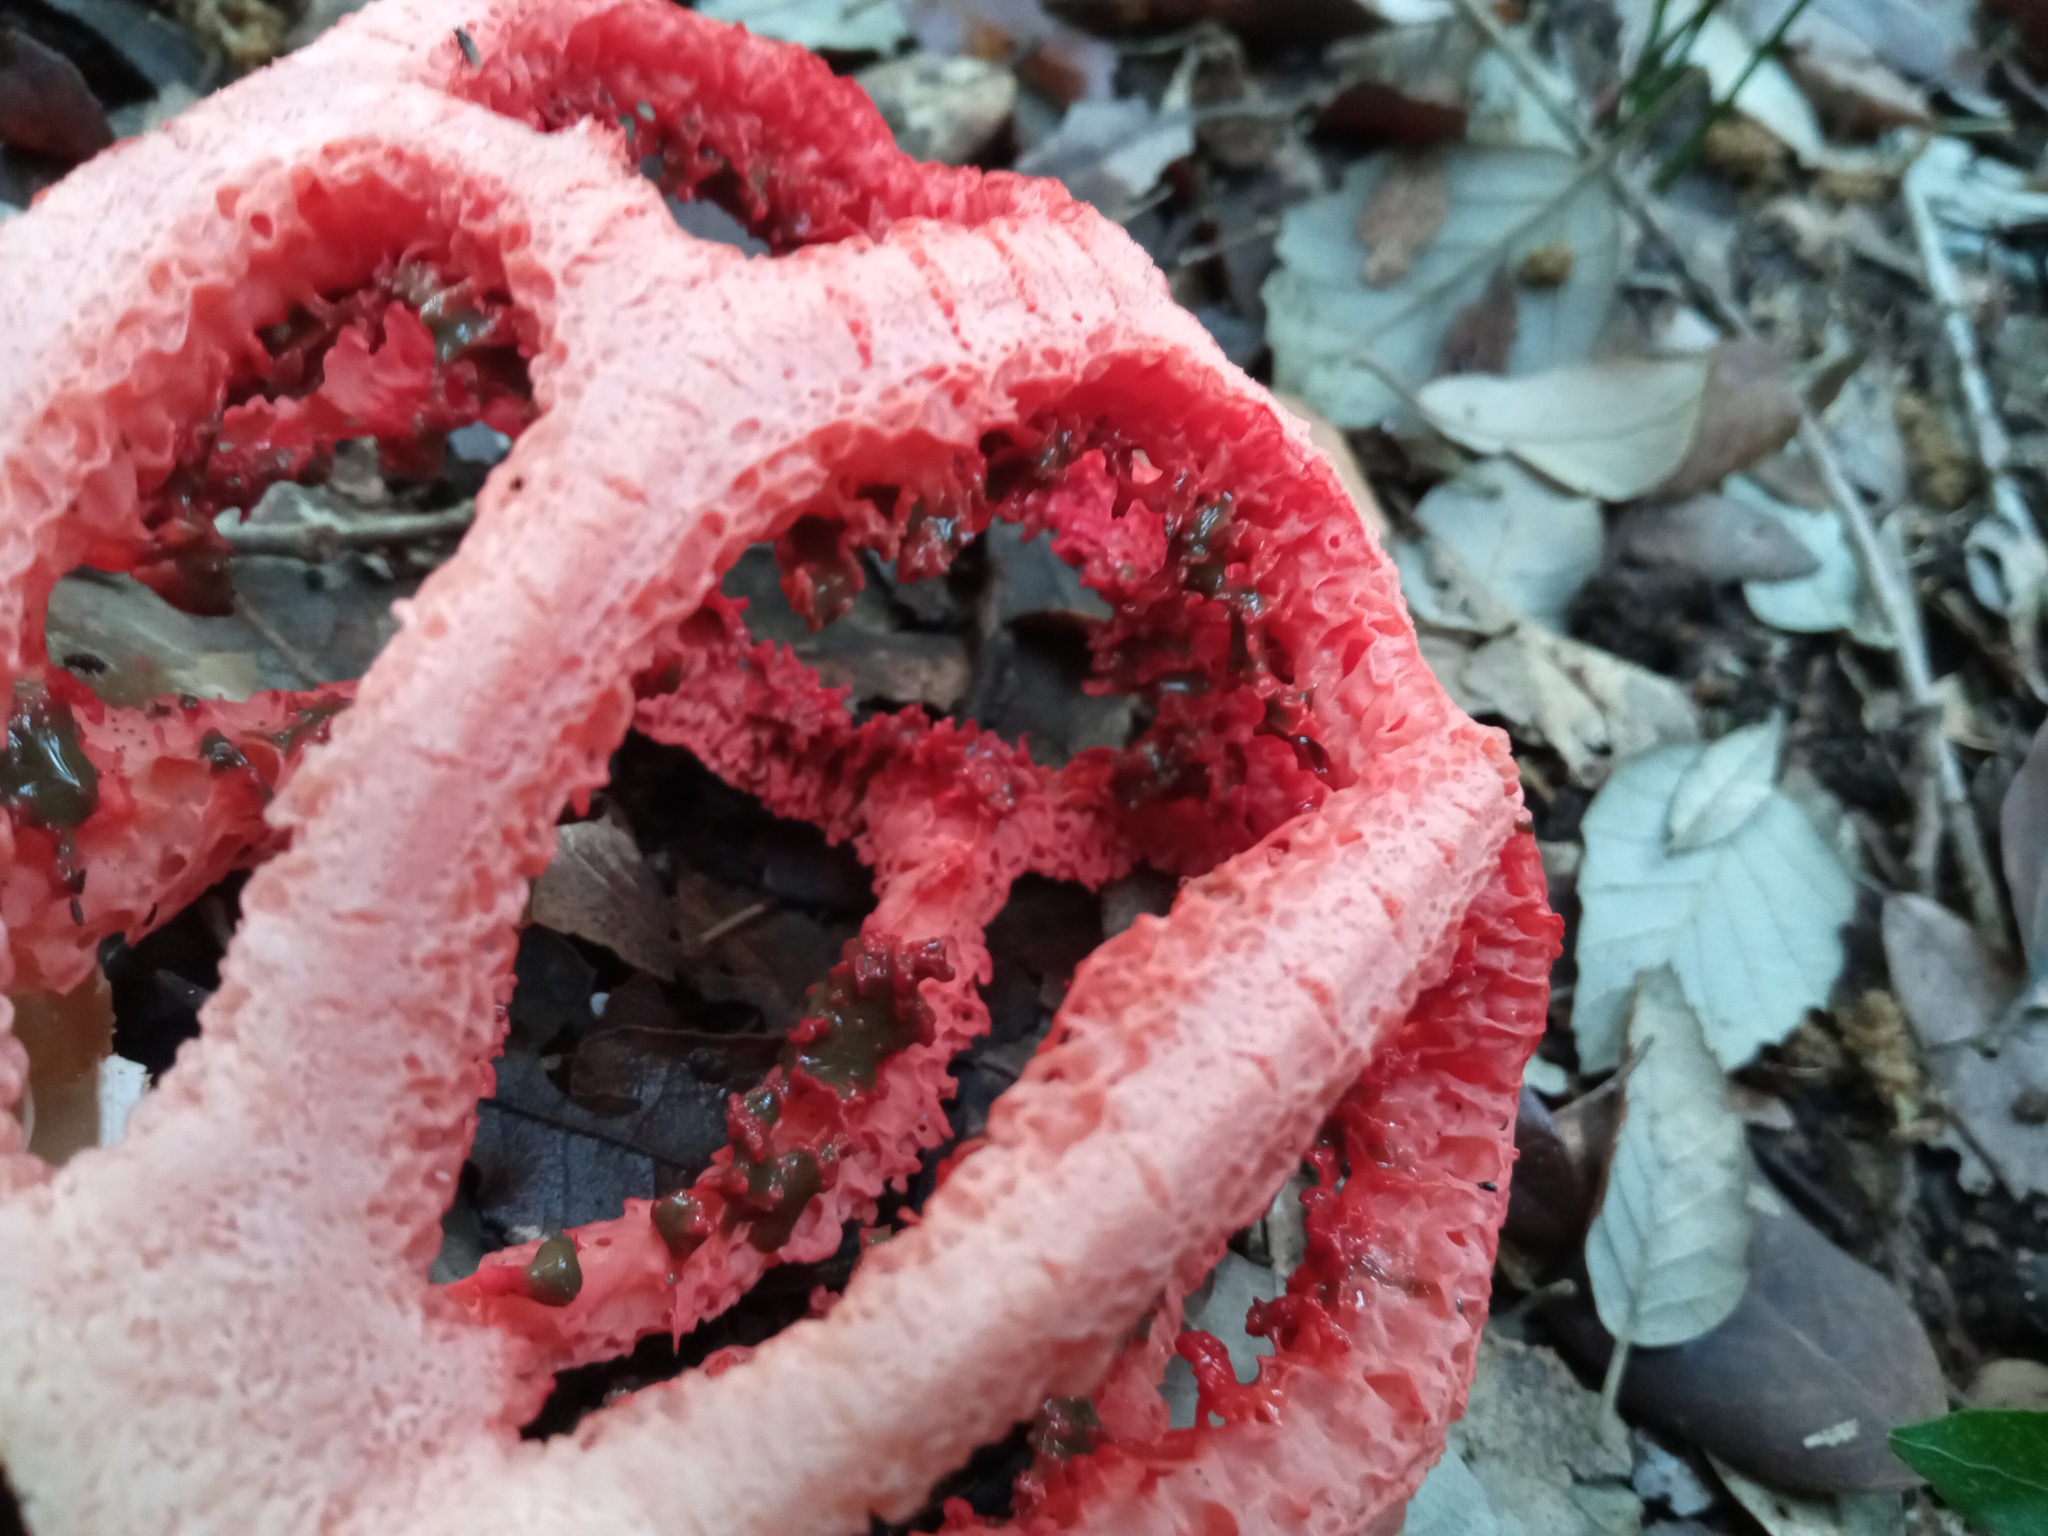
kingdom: Fungi
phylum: Basidiomycota
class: Agaricomycetes
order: Phallales
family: Phallaceae
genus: Clathrus
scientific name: Clathrus ruber
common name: Red cage
